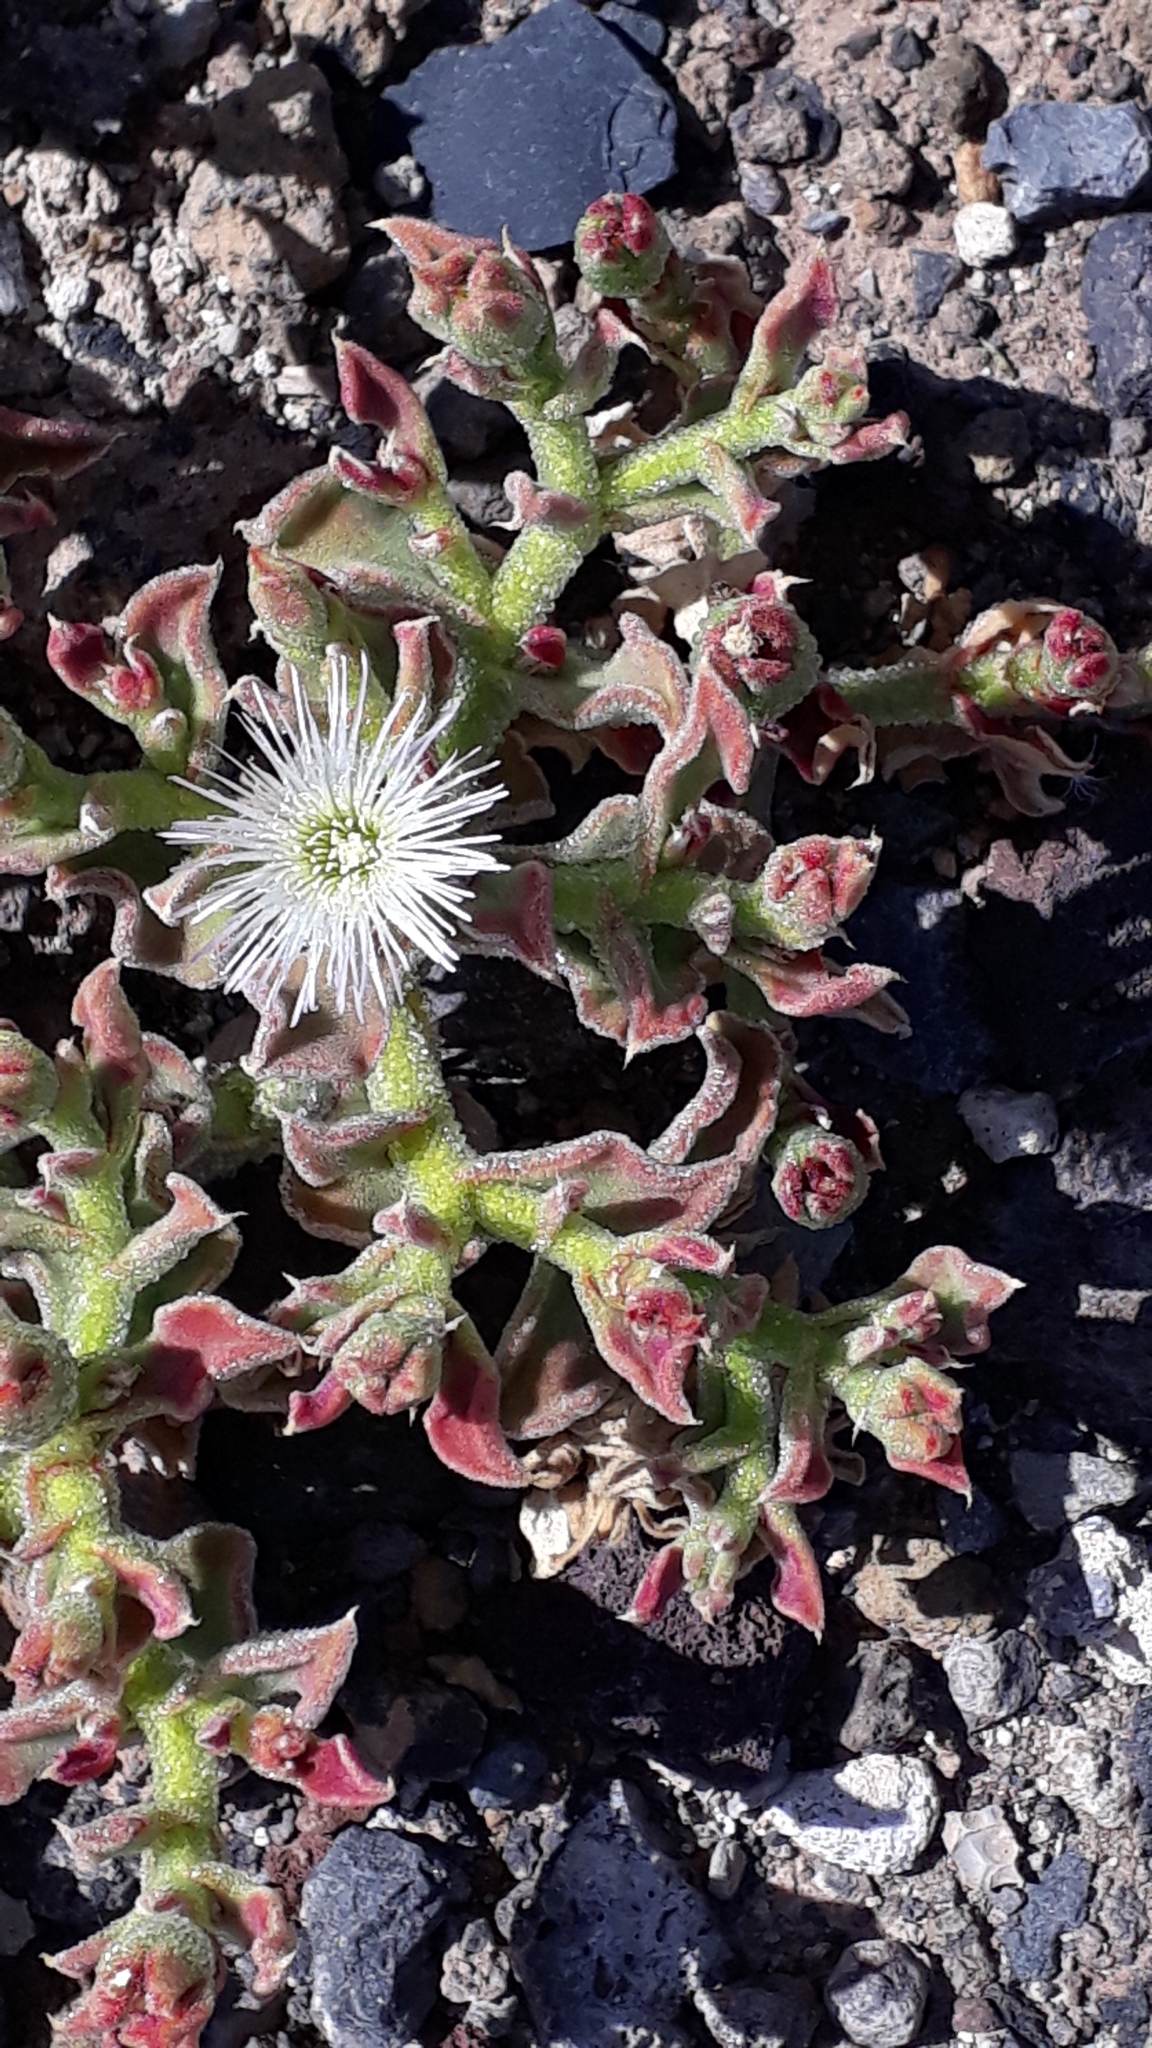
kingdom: Plantae
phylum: Tracheophyta
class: Magnoliopsida
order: Caryophyllales
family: Aizoaceae
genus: Mesembryanthemum
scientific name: Mesembryanthemum crystallinum
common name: Common iceplant
